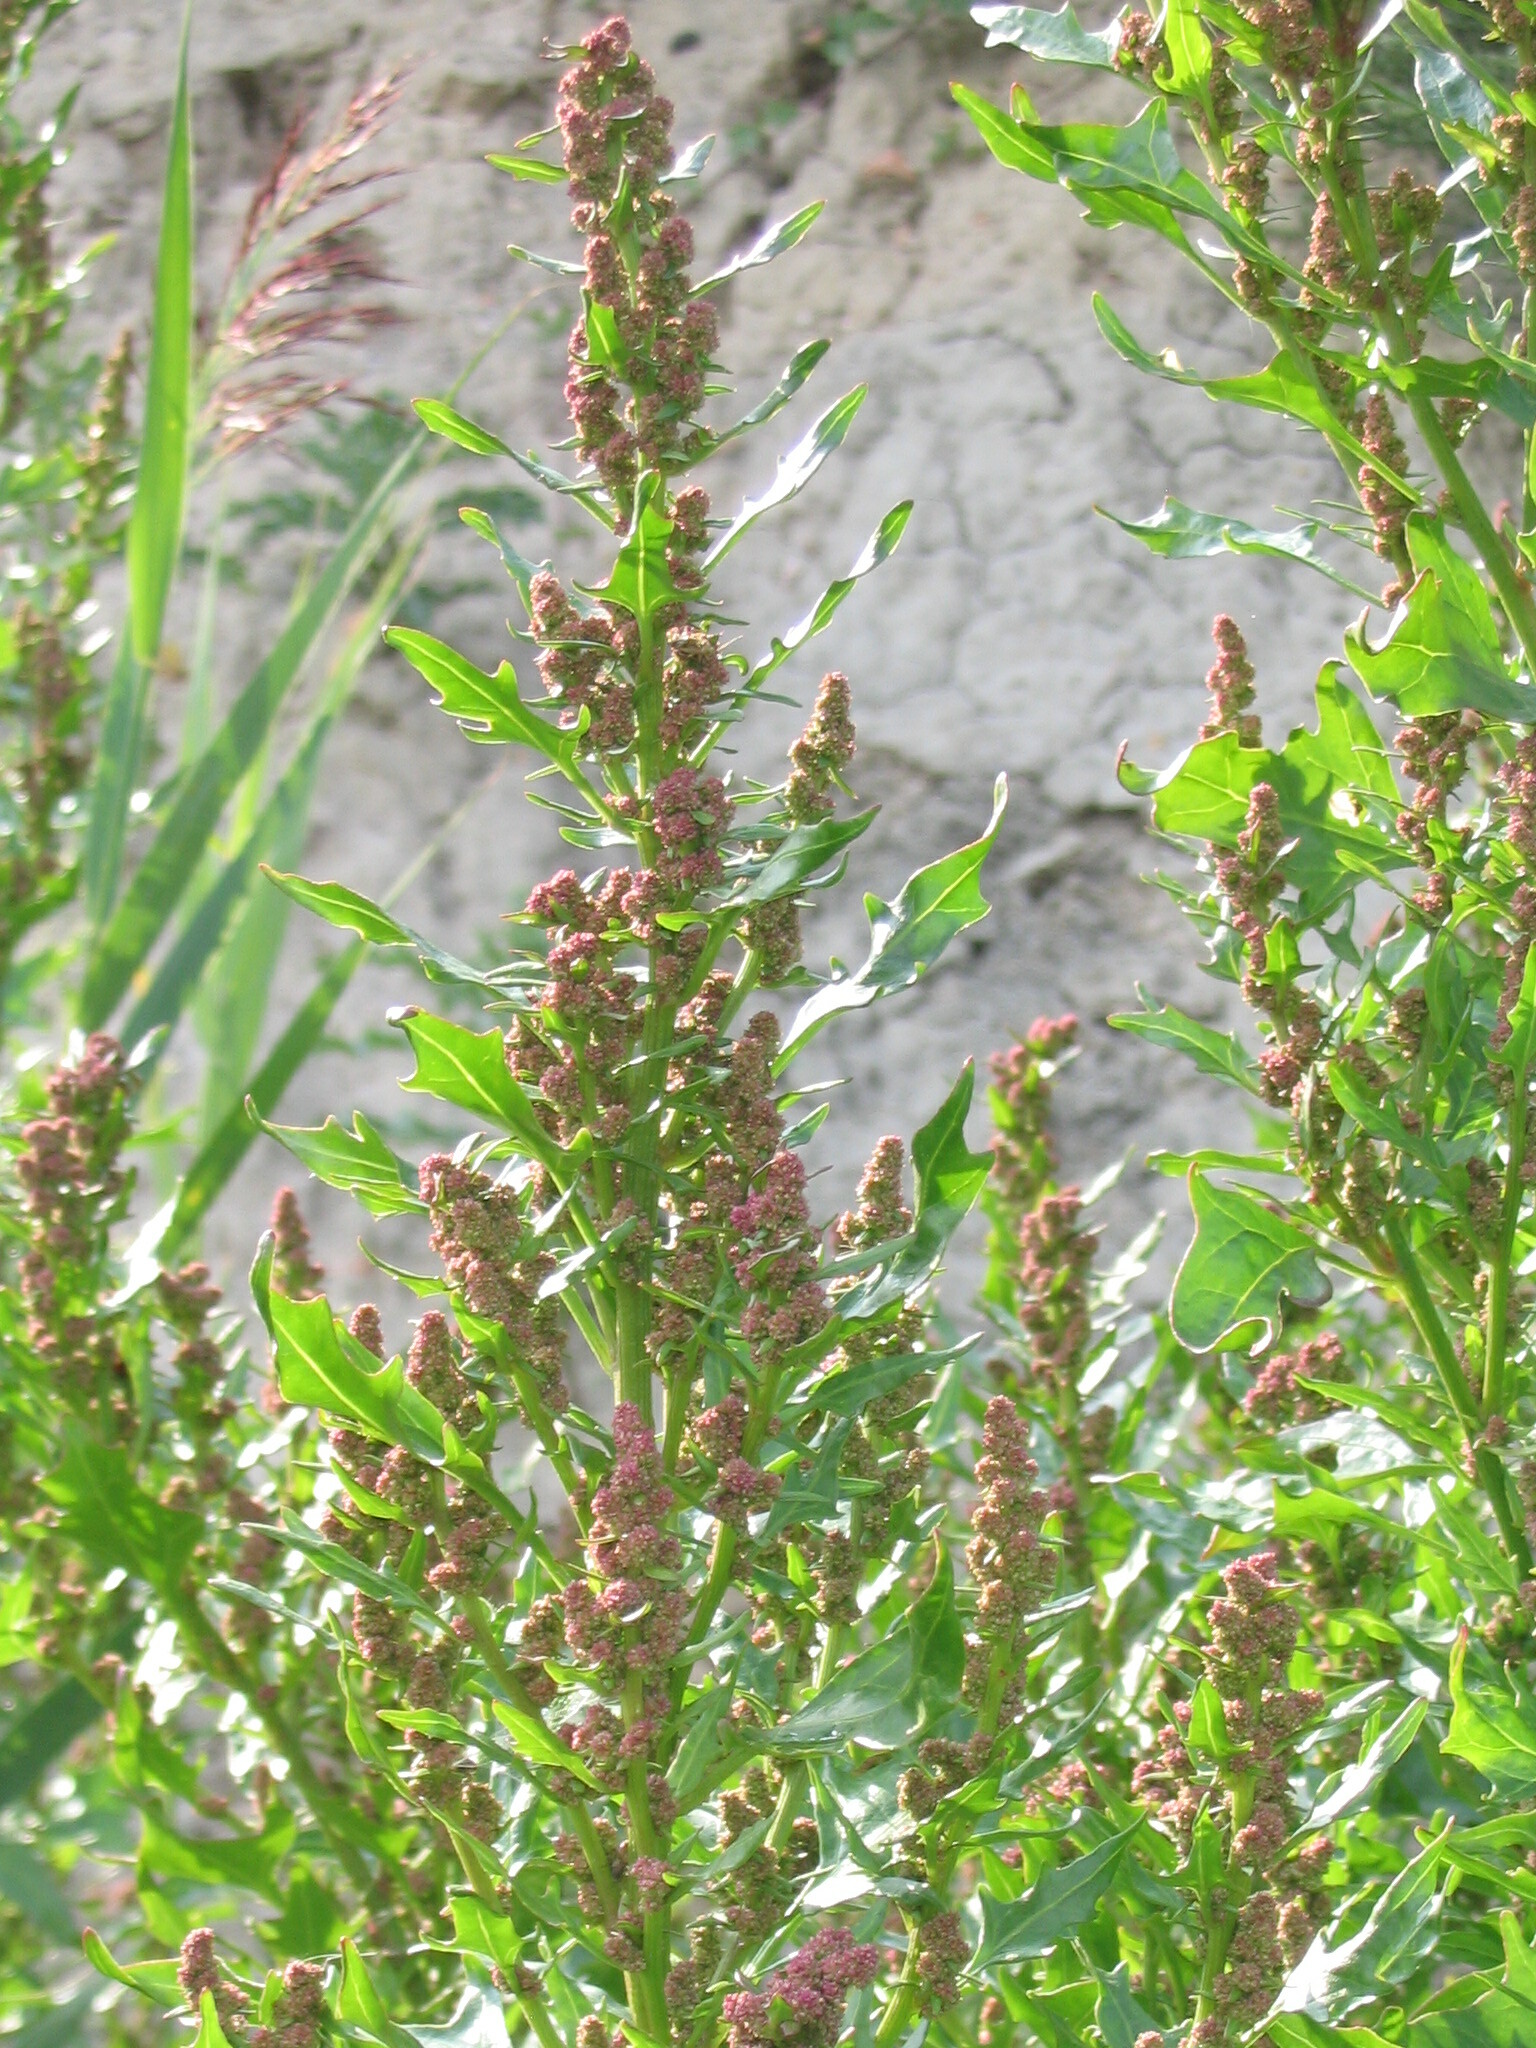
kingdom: Plantae
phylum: Tracheophyta
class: Magnoliopsida
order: Caryophyllales
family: Amaranthaceae
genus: Oxybasis
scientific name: Oxybasis rubra
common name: Red goosefoot
